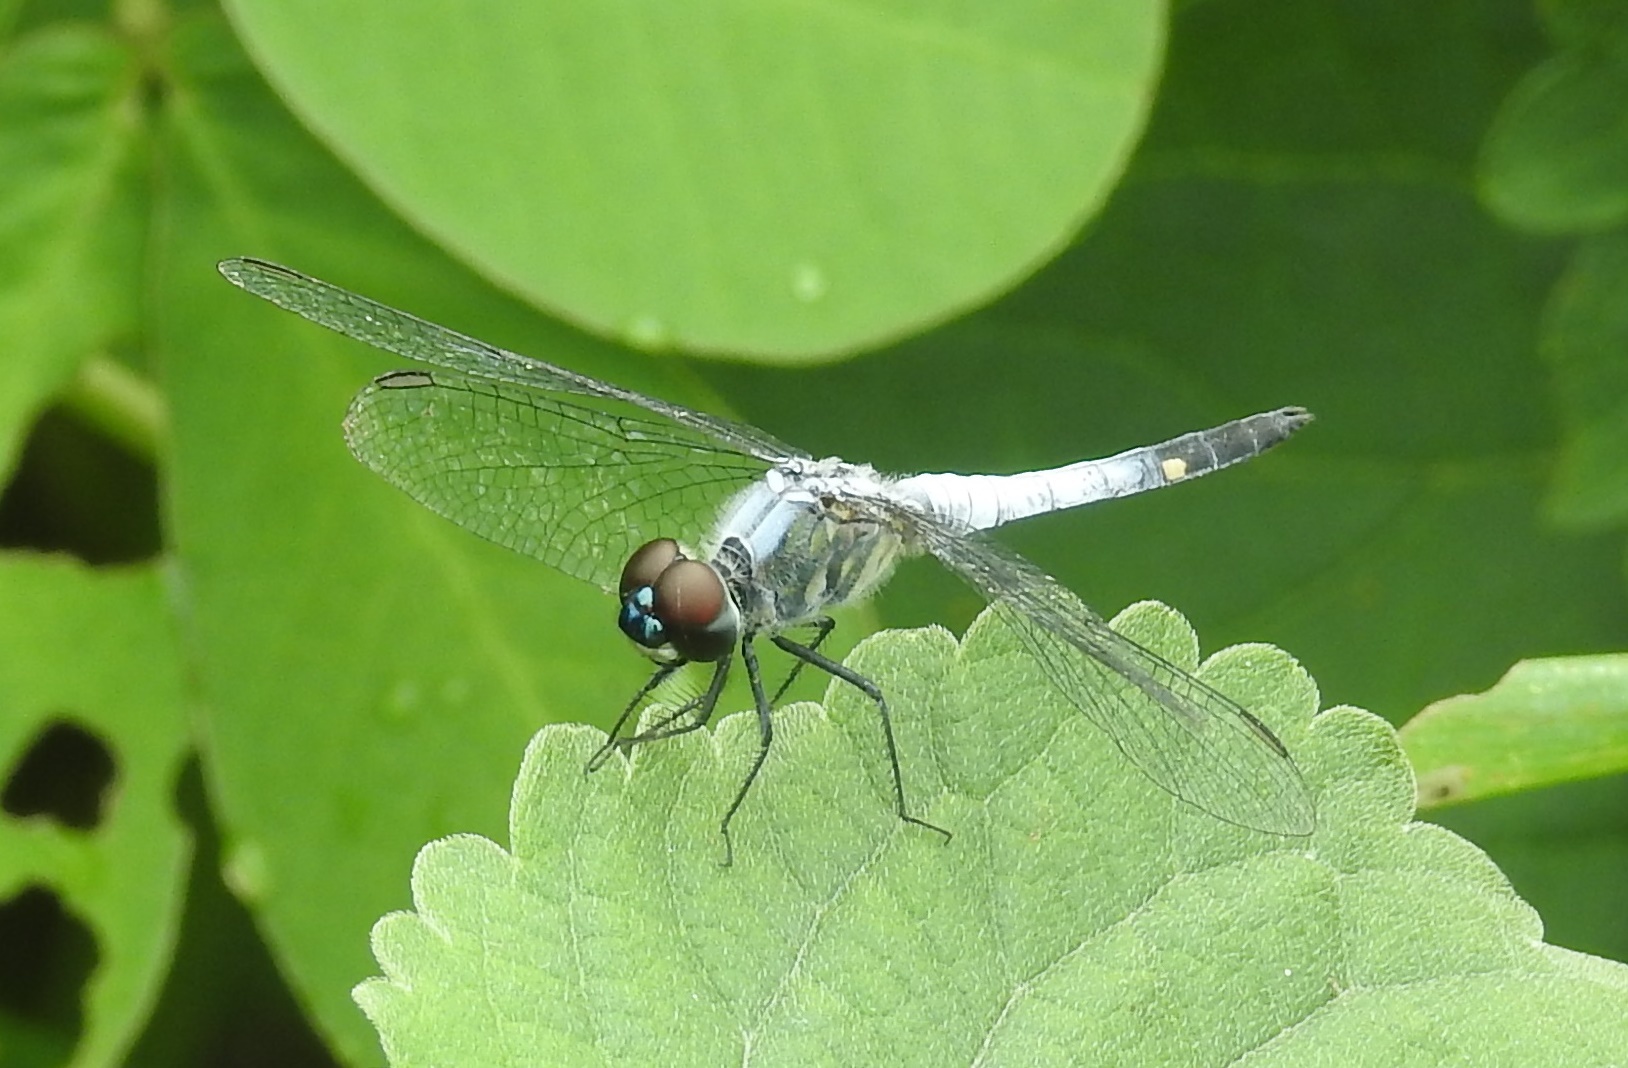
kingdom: Animalia
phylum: Arthropoda
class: Insecta
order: Odonata
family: Libellulidae
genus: Brachydiplax
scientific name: Brachydiplax sobrina
